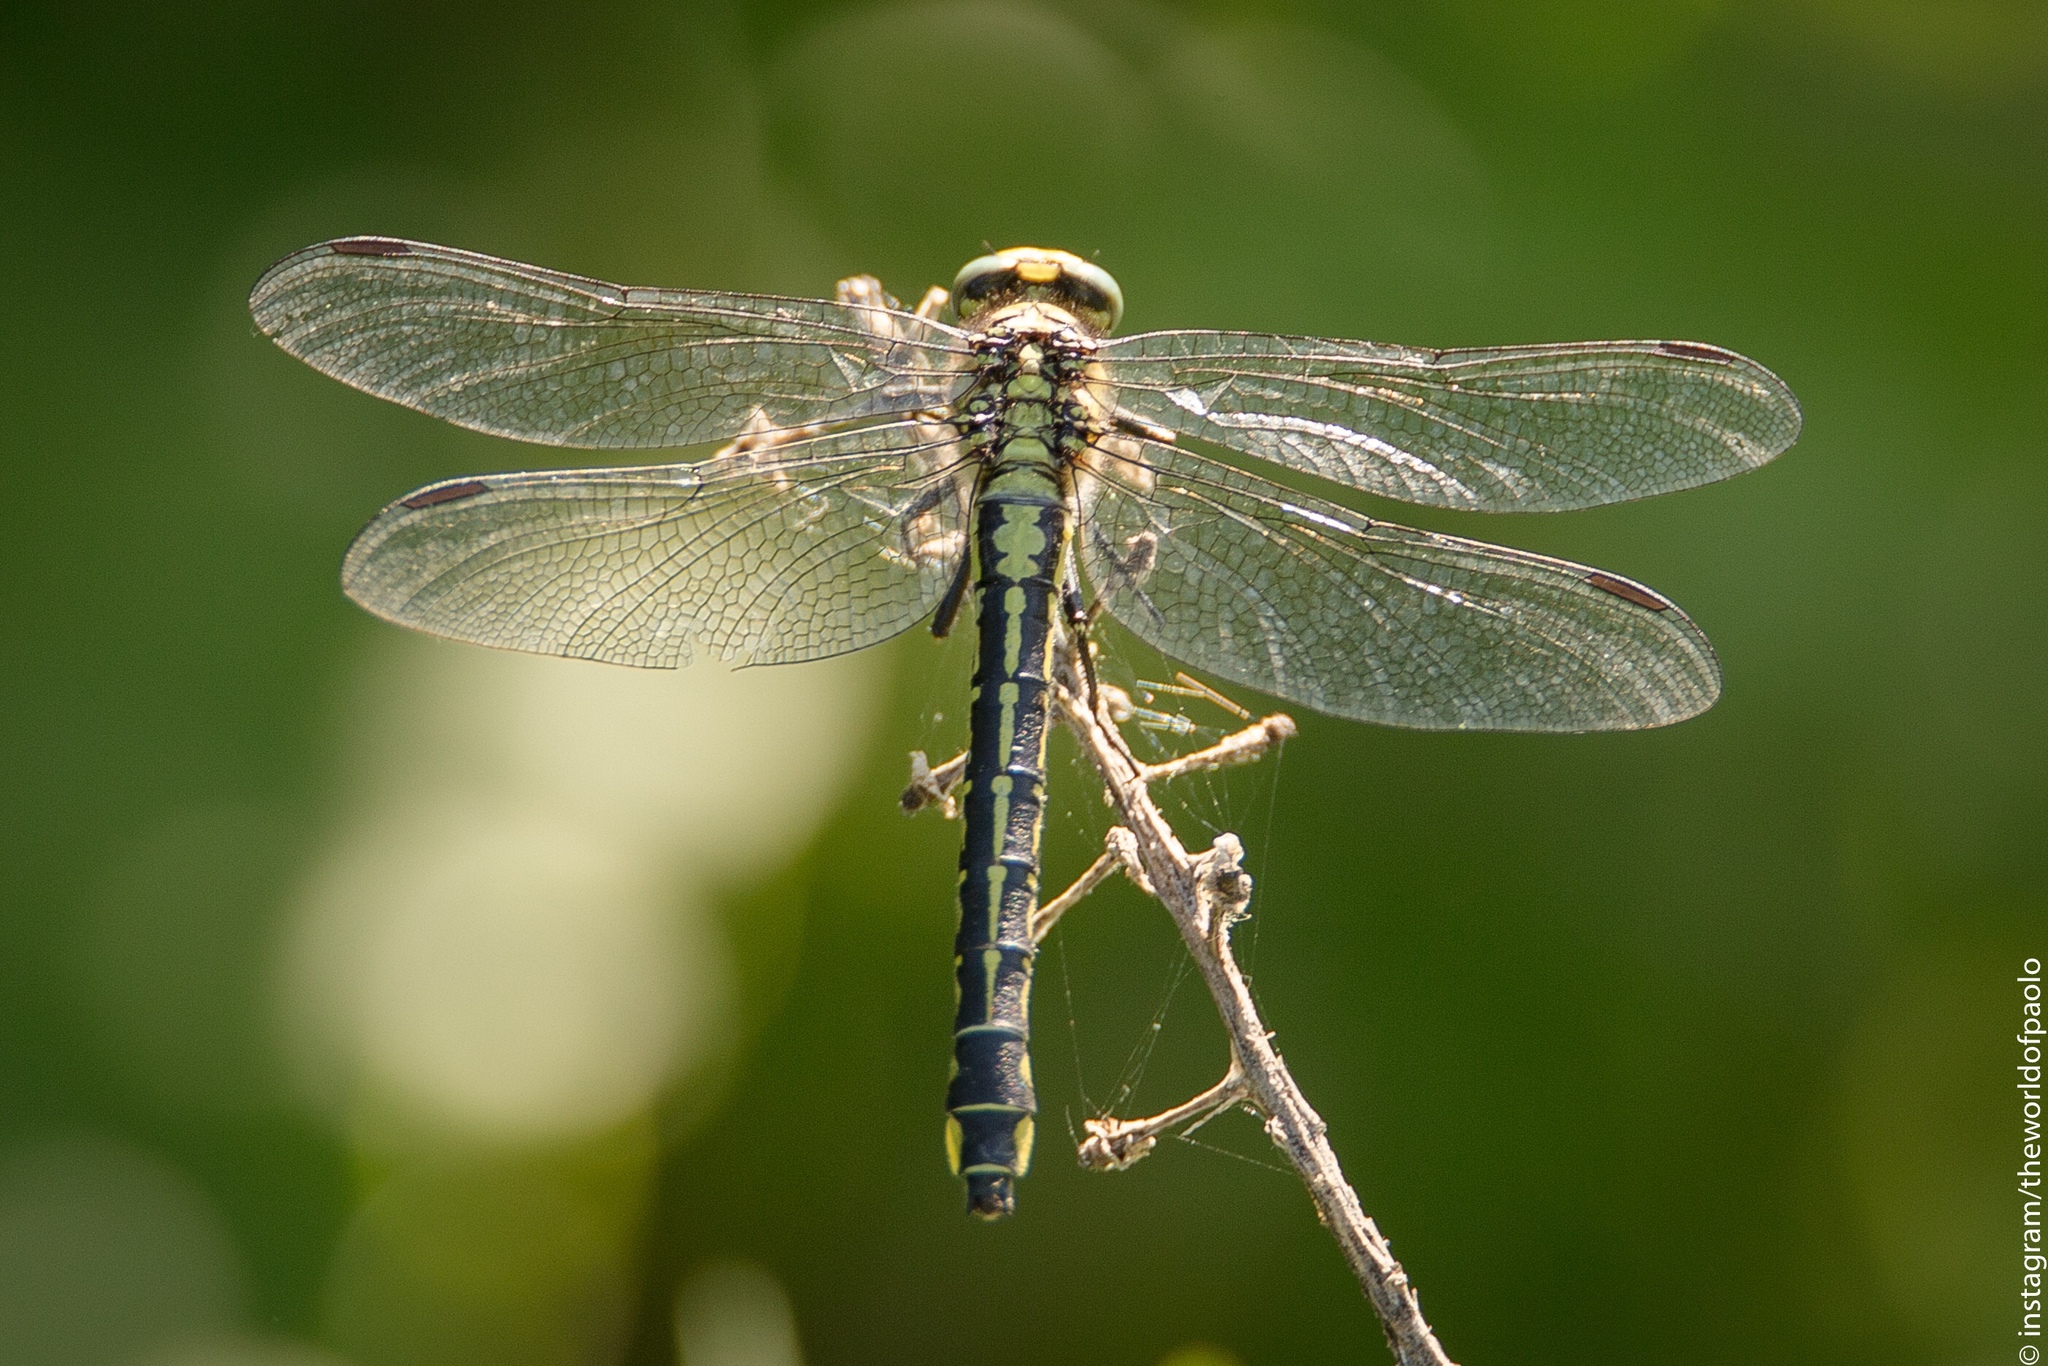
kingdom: Animalia
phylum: Arthropoda
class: Insecta
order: Odonata
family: Gomphidae
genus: Gomphus
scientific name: Gomphus vulgatissimus
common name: Club-tailed dragonfly
